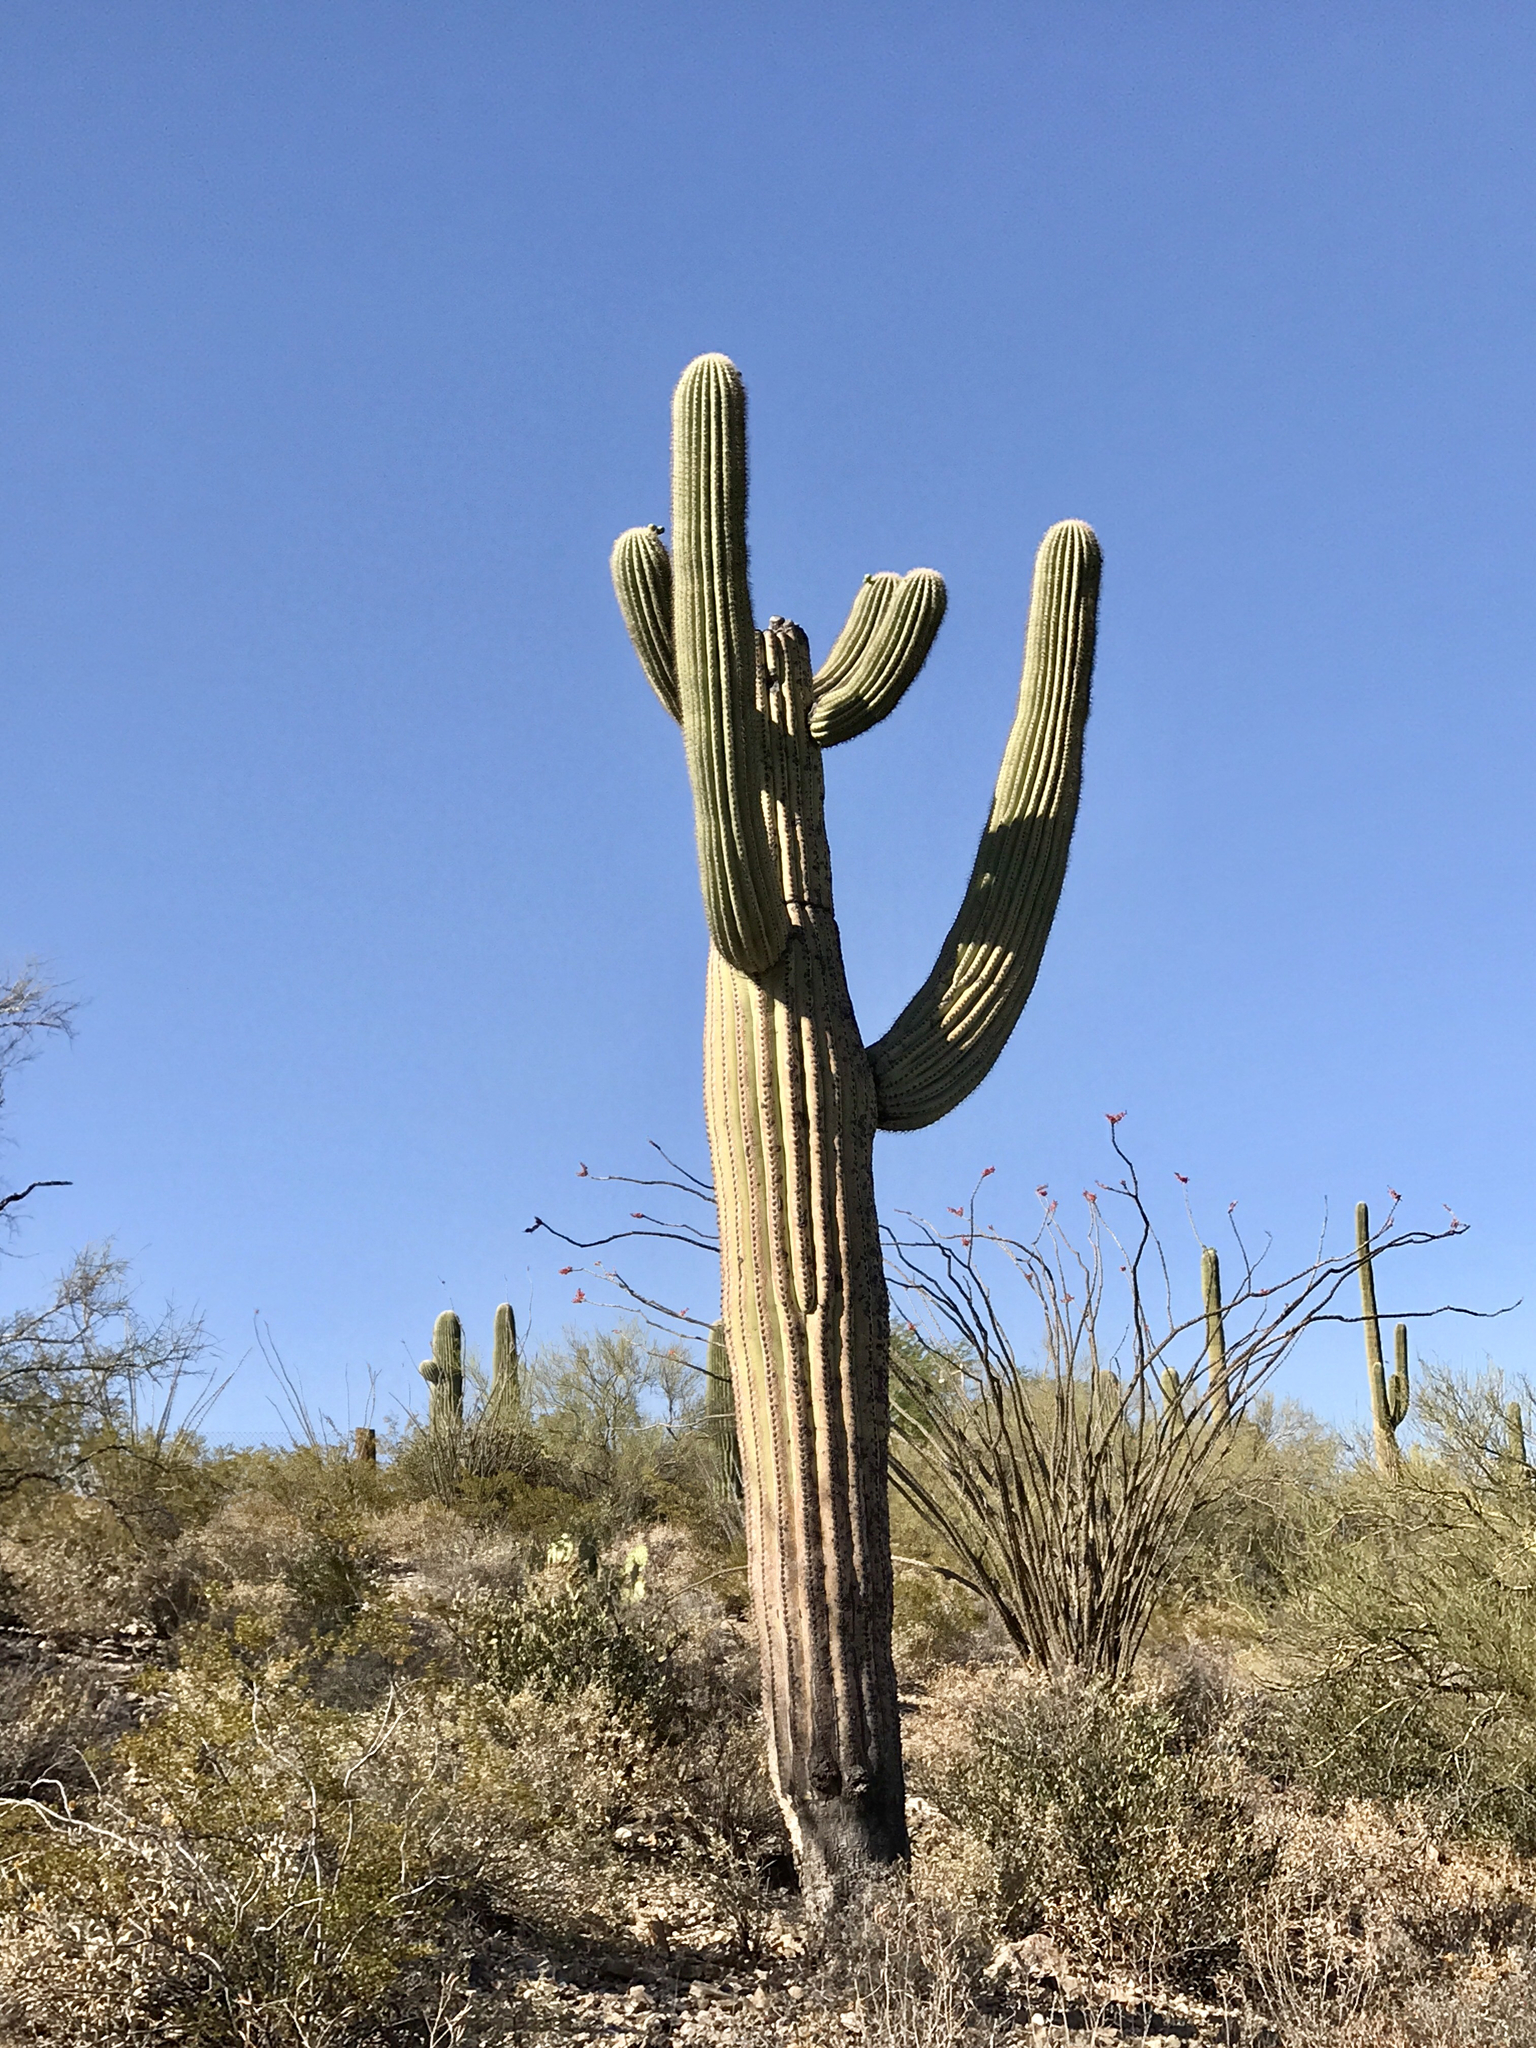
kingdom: Plantae
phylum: Tracheophyta
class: Magnoliopsida
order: Caryophyllales
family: Cactaceae
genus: Carnegiea
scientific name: Carnegiea gigantea
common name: Saguaro
